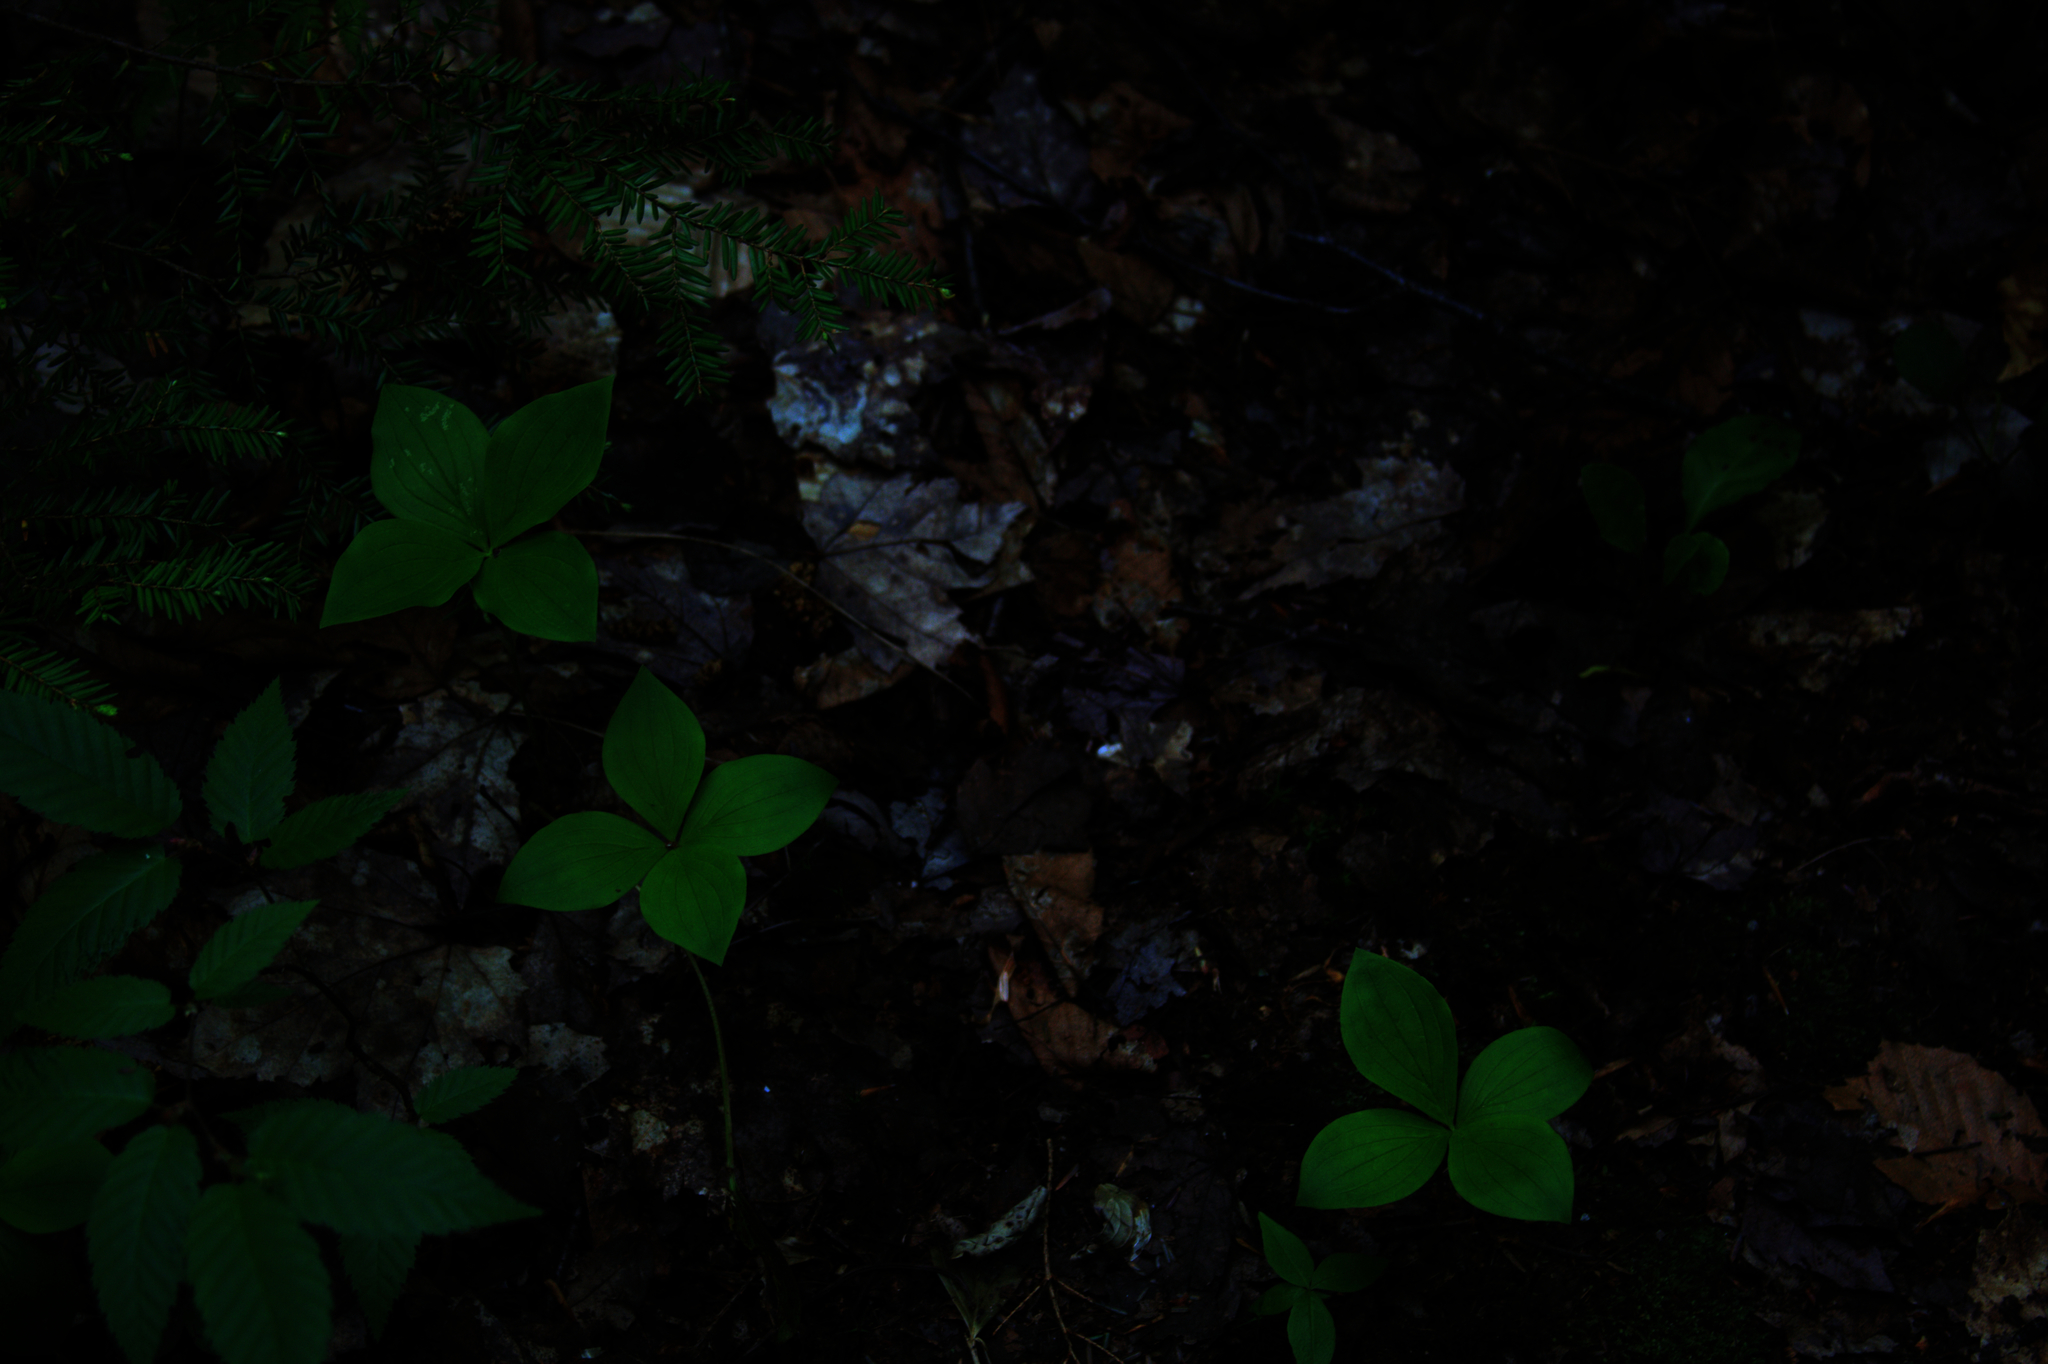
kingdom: Plantae
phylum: Tracheophyta
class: Magnoliopsida
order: Cornales
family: Cornaceae
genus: Cornus
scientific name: Cornus canadensis
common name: Creeping dogwood
